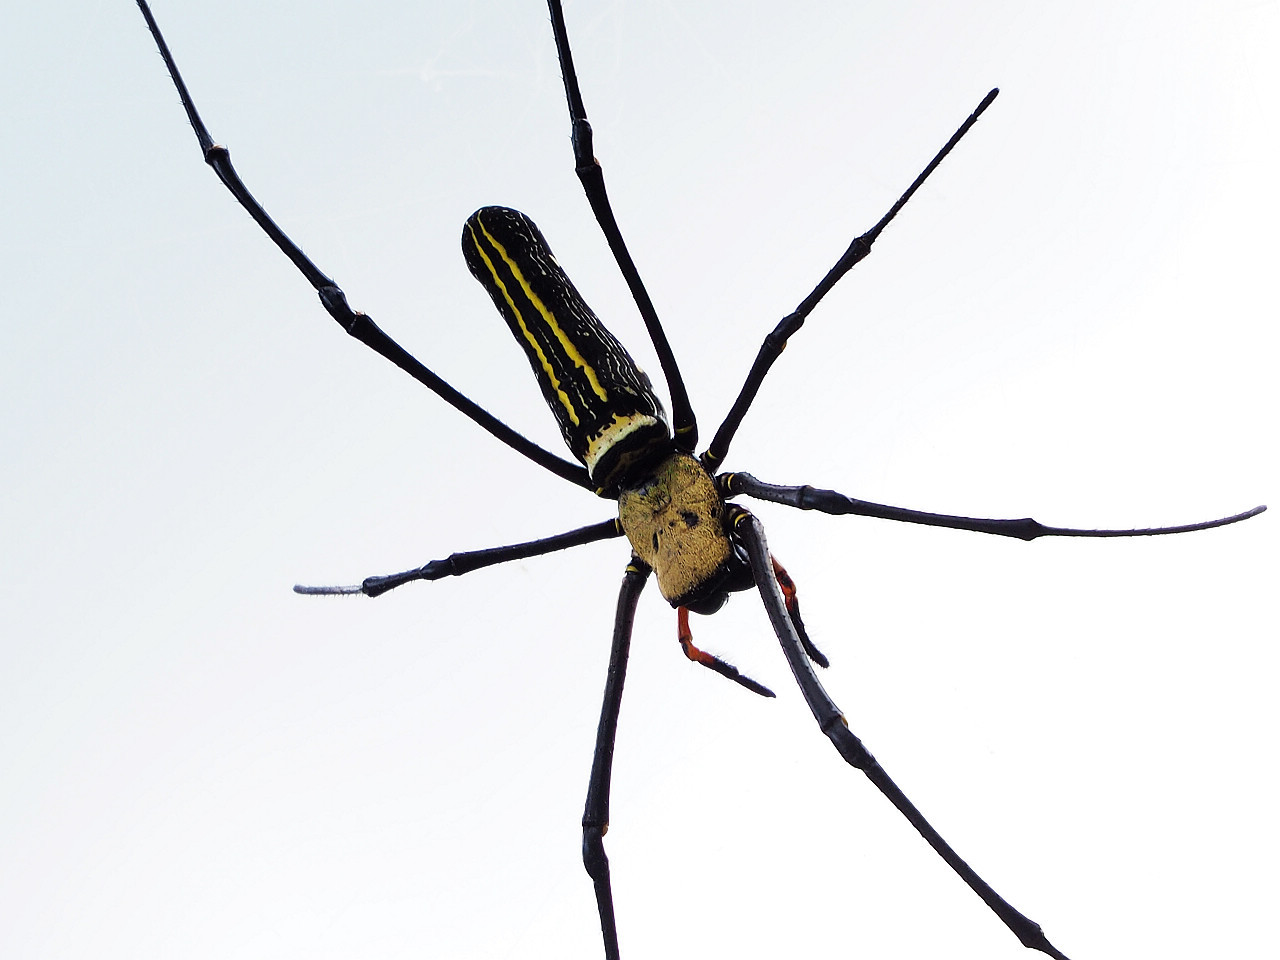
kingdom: Animalia
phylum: Arthropoda
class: Arachnida
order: Araneae
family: Araneidae
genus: Nephila
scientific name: Nephila pilipes
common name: Giant golden orb weaver
